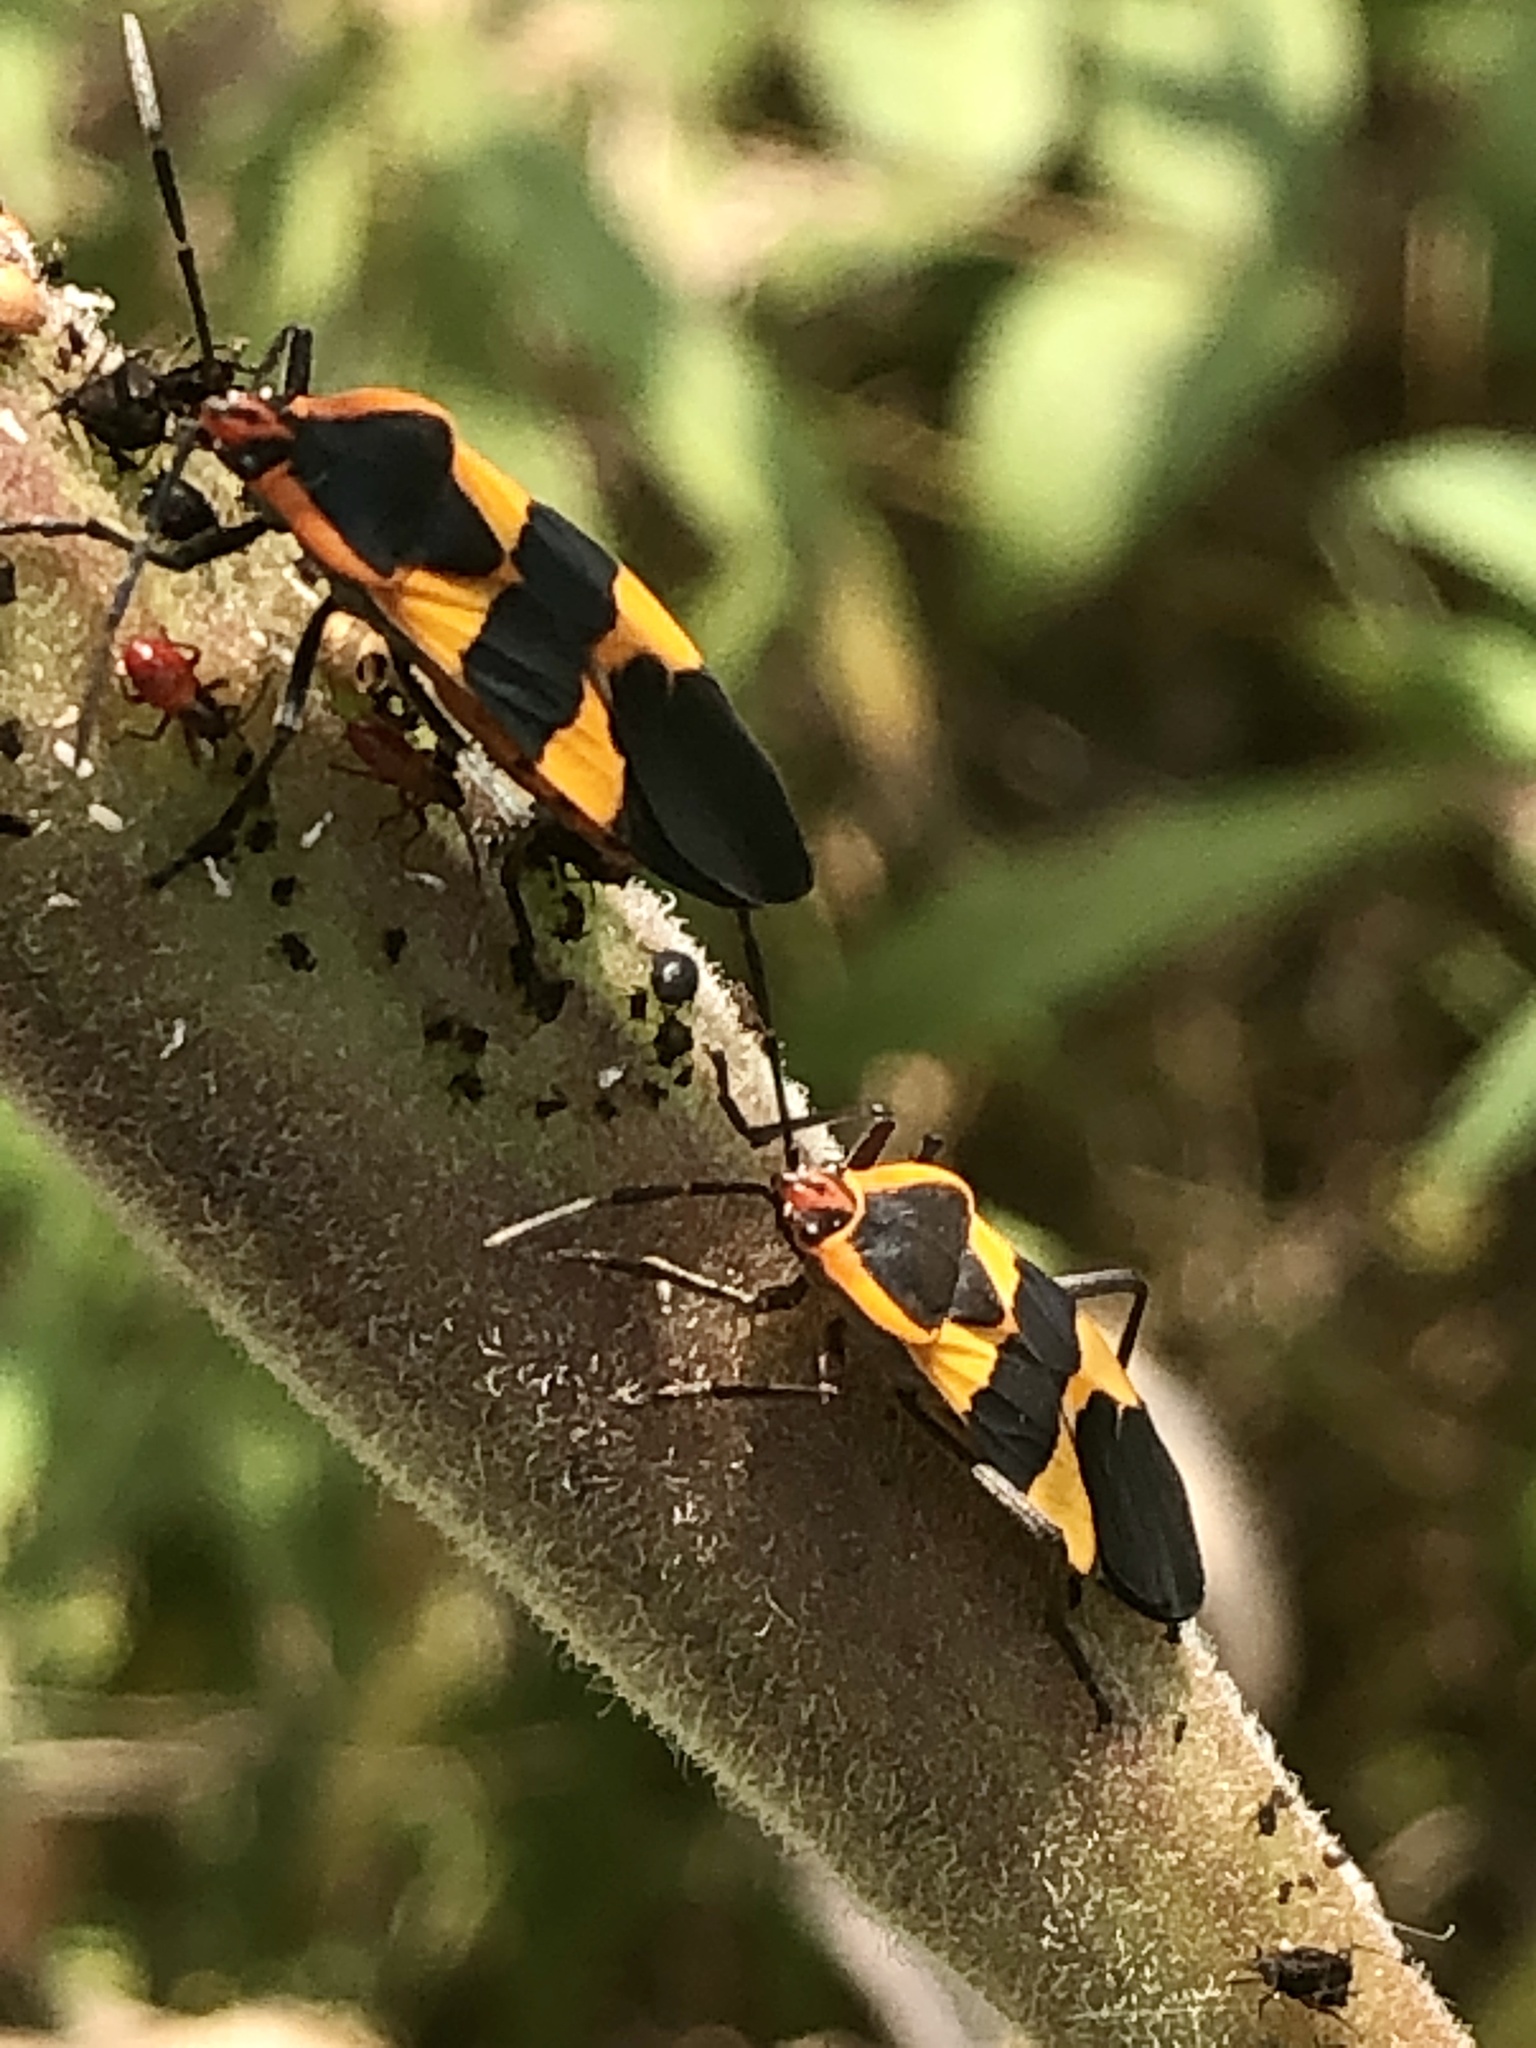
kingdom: Animalia
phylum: Arthropoda
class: Insecta
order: Hemiptera
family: Lygaeidae
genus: Oncopeltus
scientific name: Oncopeltus fasciatus
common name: Large milkweed bug
